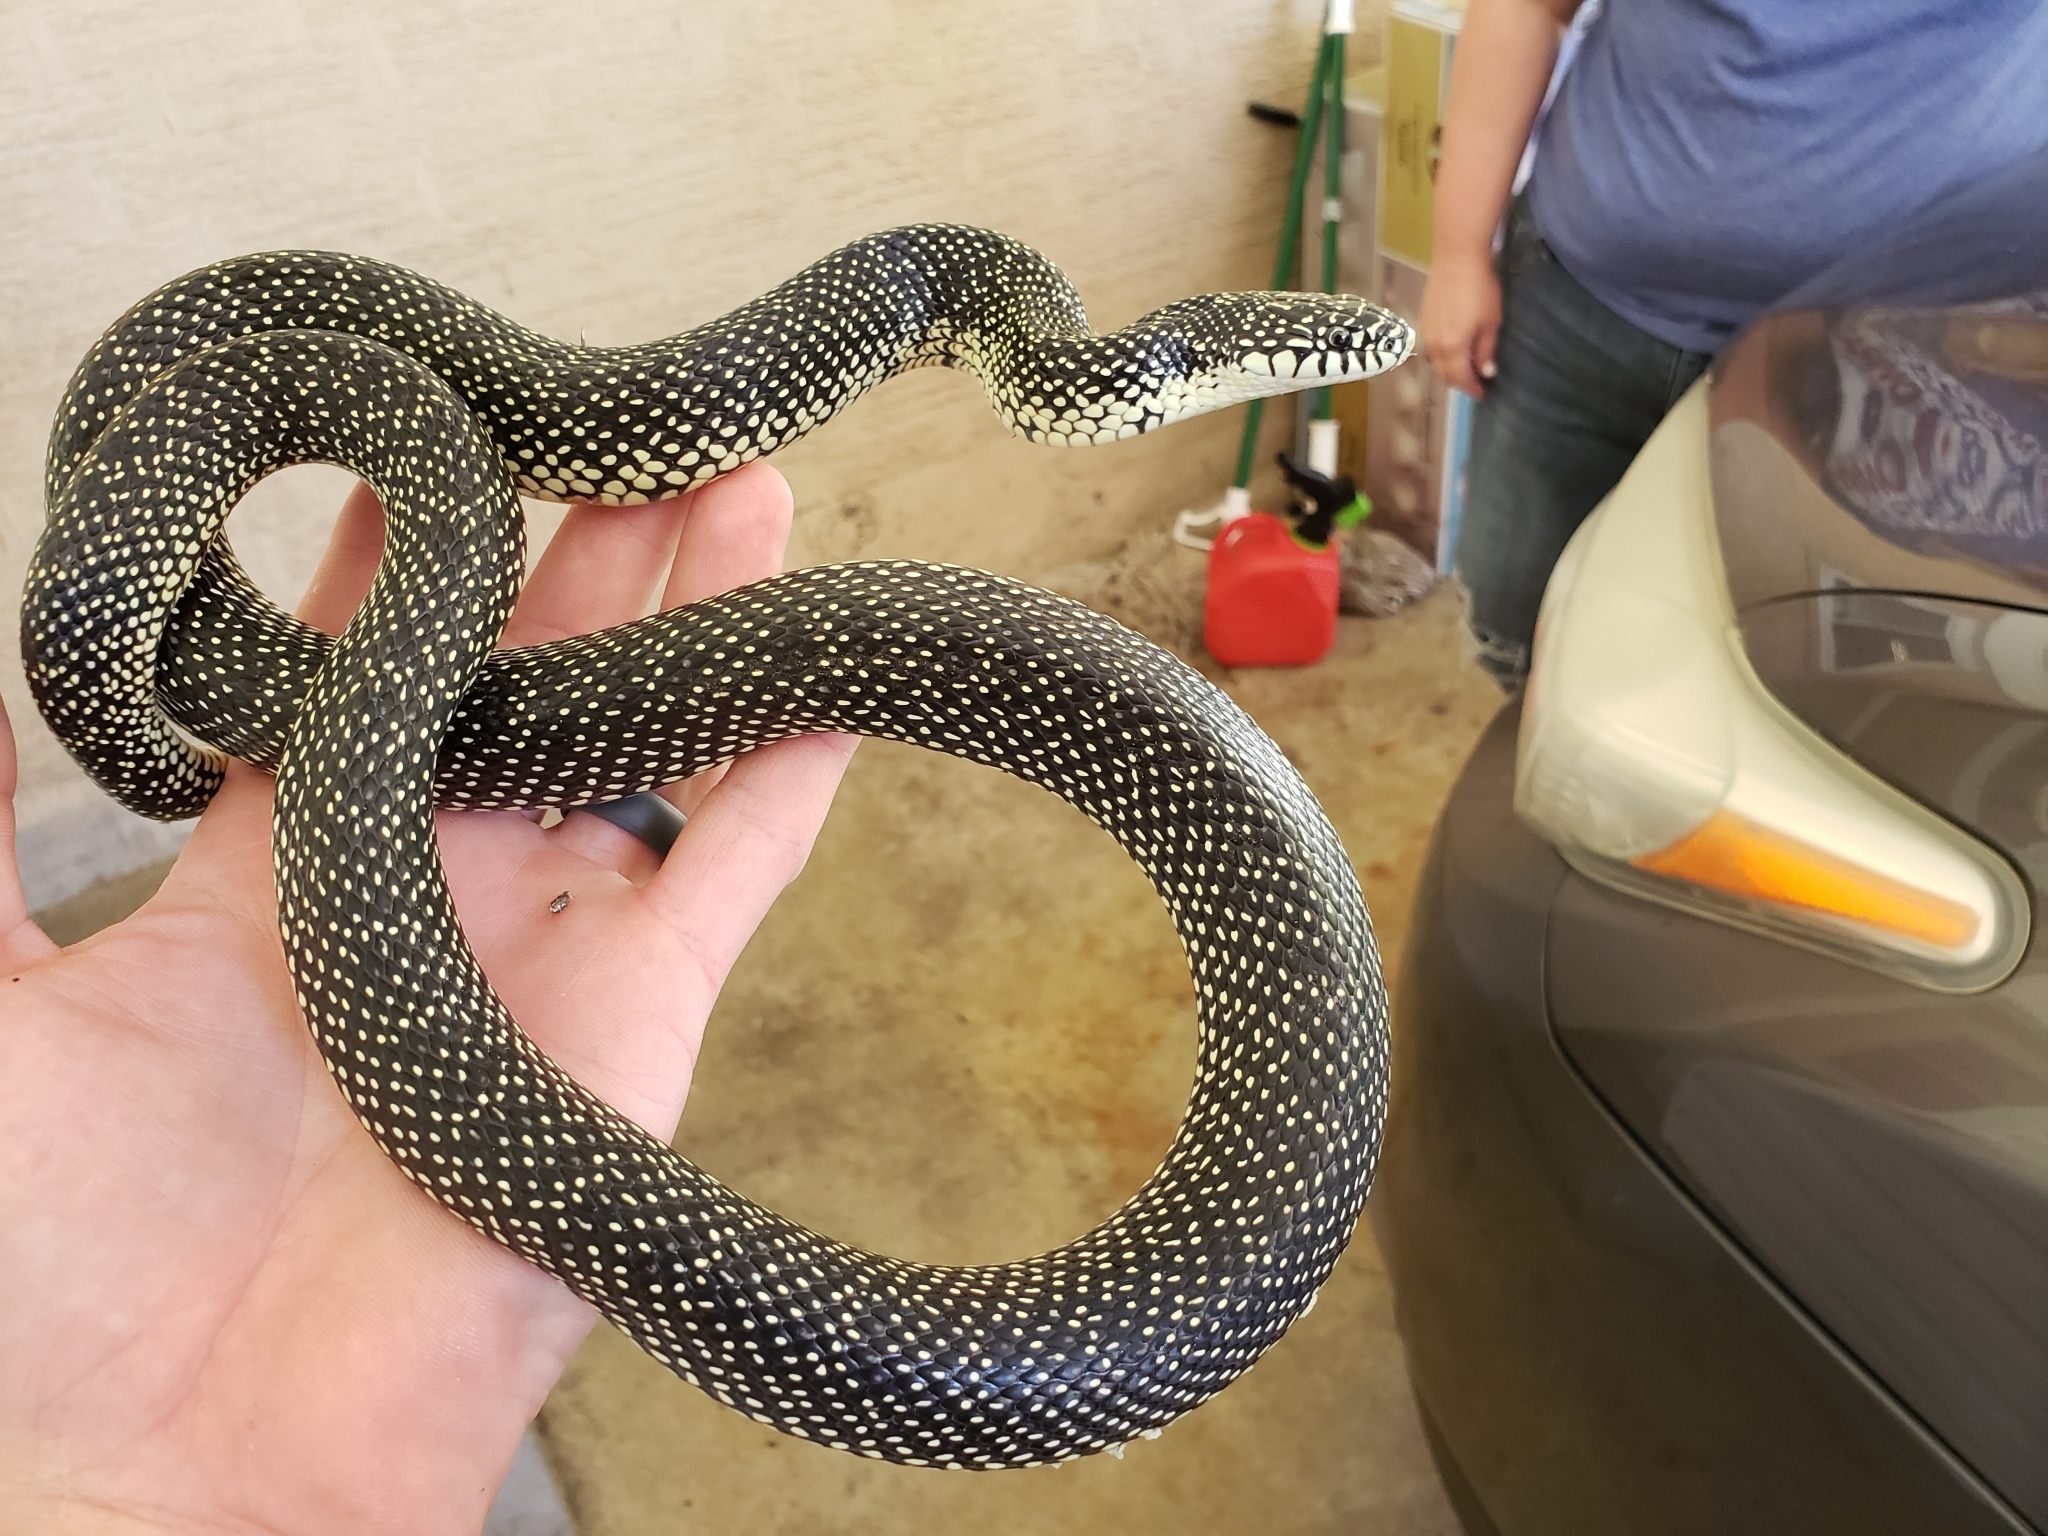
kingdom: Animalia
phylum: Chordata
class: Squamata
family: Colubridae
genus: Lampropeltis
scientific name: Lampropeltis holbrooki
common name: Speckled kingsnake
